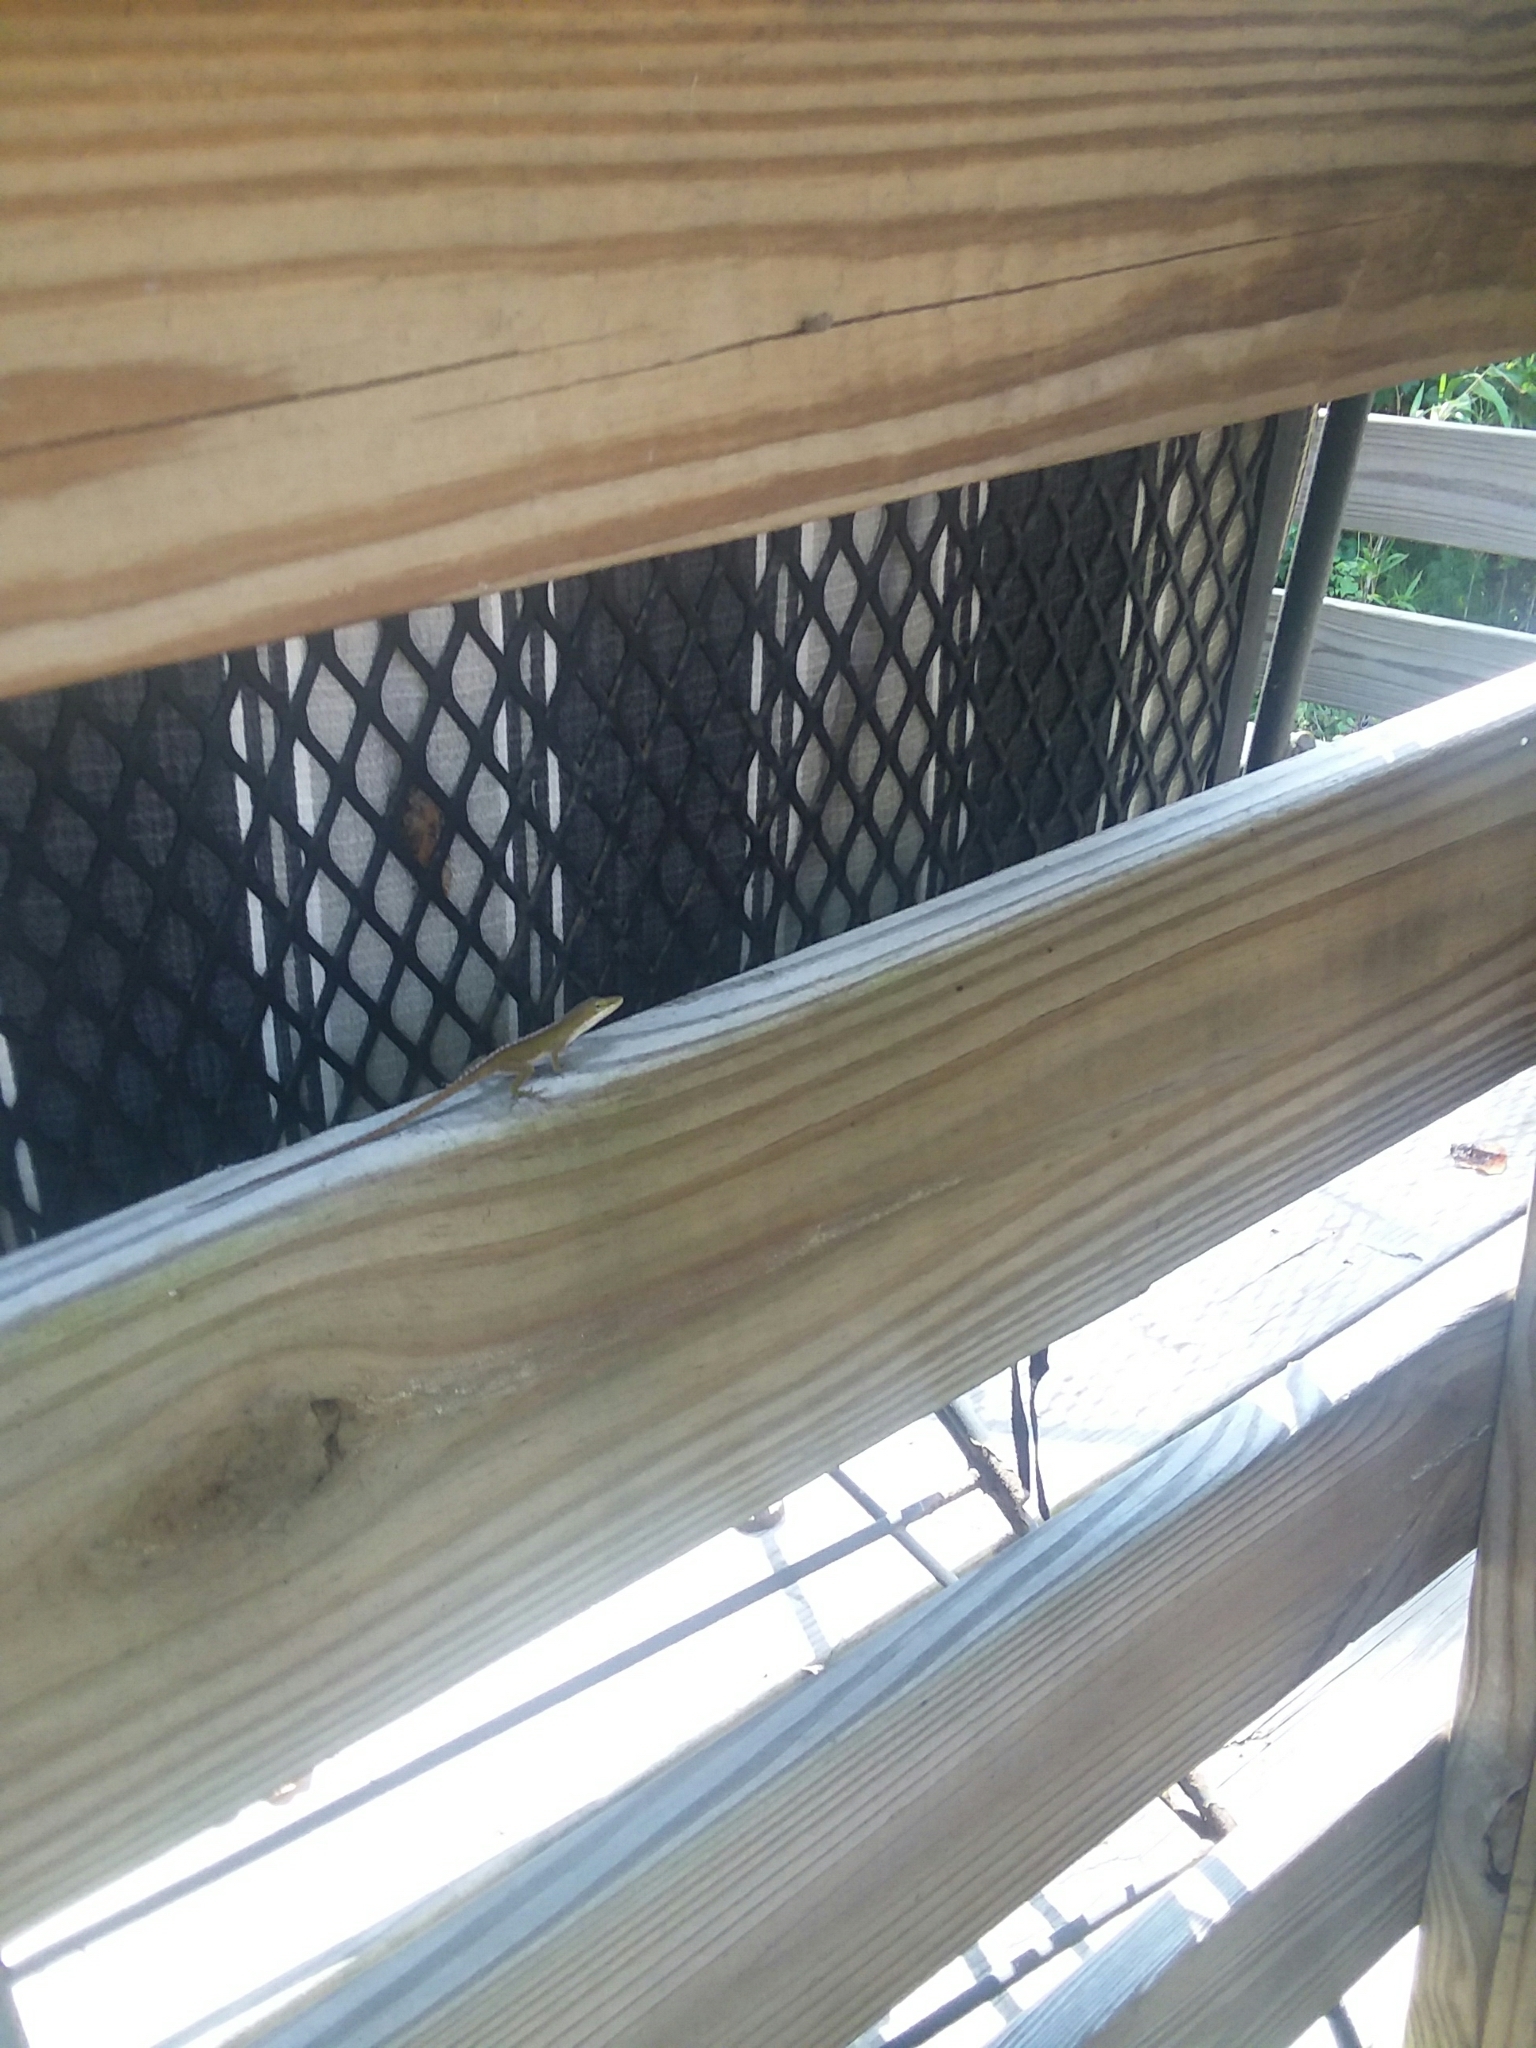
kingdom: Animalia
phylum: Chordata
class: Squamata
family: Dactyloidae
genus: Anolis
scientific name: Anolis carolinensis
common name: Green anole
